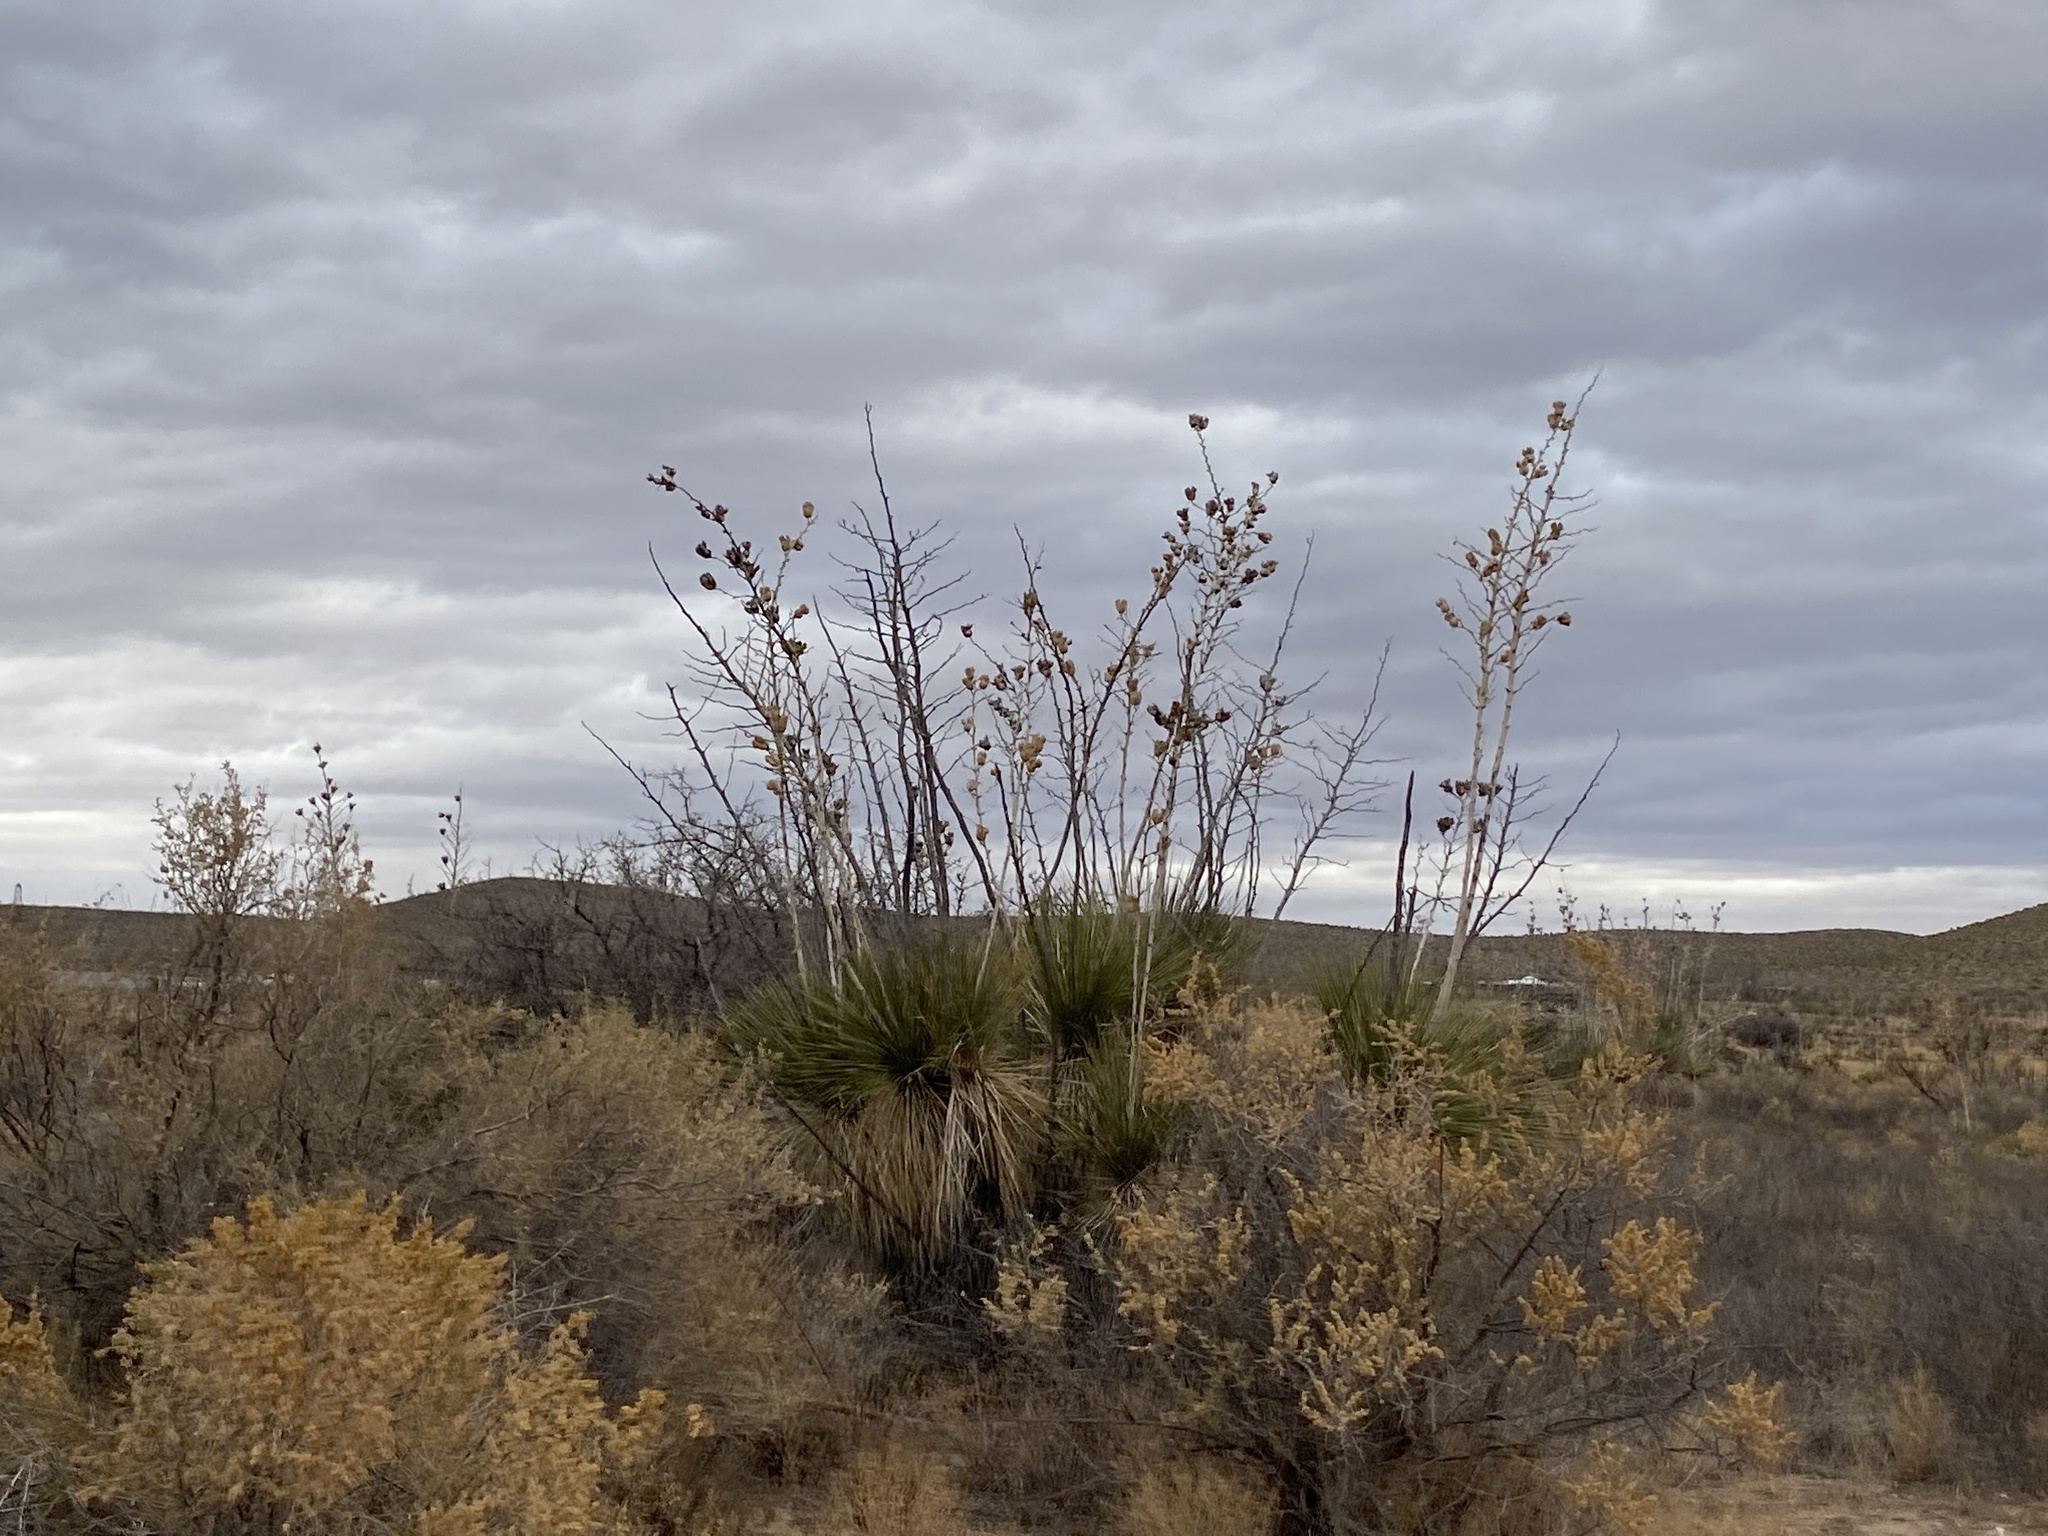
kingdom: Plantae
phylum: Tracheophyta
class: Liliopsida
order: Asparagales
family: Asparagaceae
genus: Yucca
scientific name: Yucca elata
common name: Palmella
